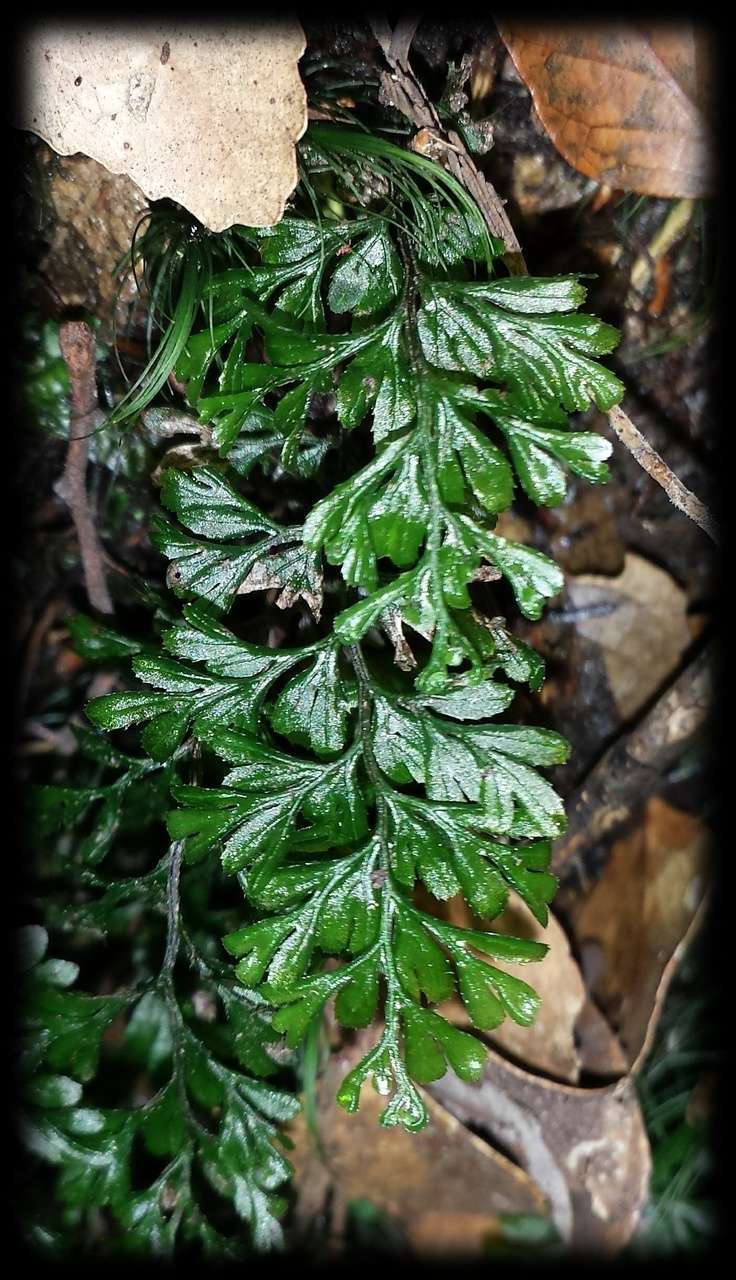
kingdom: Plantae
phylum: Tracheophyta
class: Polypodiopsida
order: Hymenophyllales
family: Hymenophyllaceae
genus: Hymenophyllum
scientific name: Hymenophyllum cupressiforme
